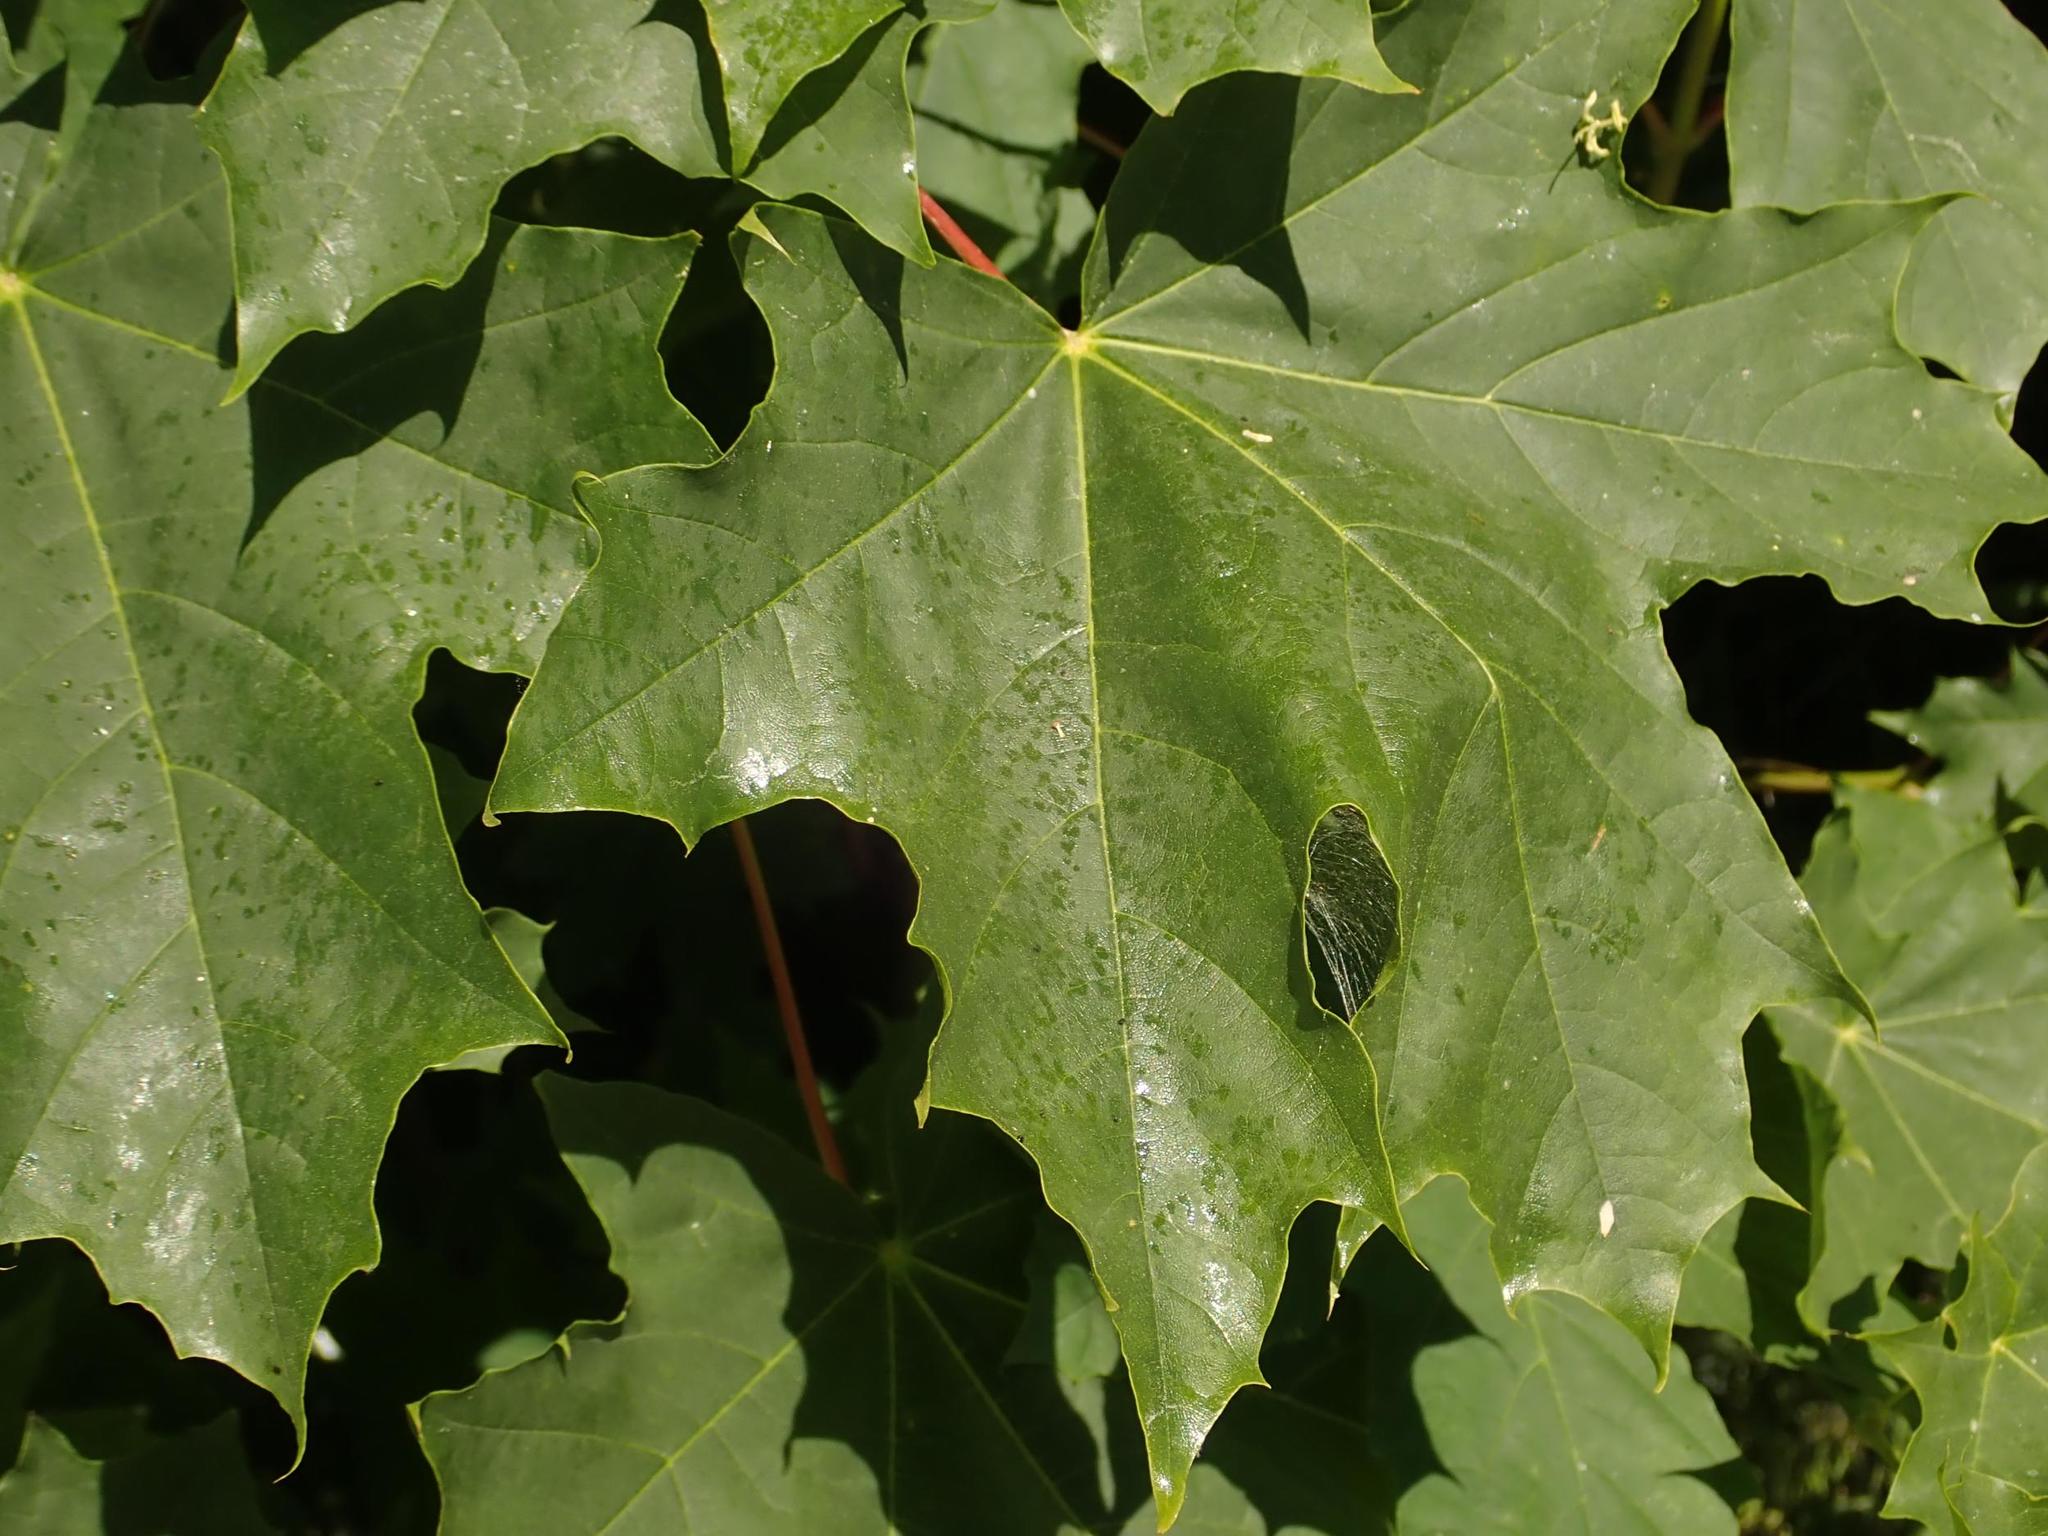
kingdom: Plantae
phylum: Tracheophyta
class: Magnoliopsida
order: Sapindales
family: Sapindaceae
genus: Acer
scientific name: Acer platanoides
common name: Norway maple
